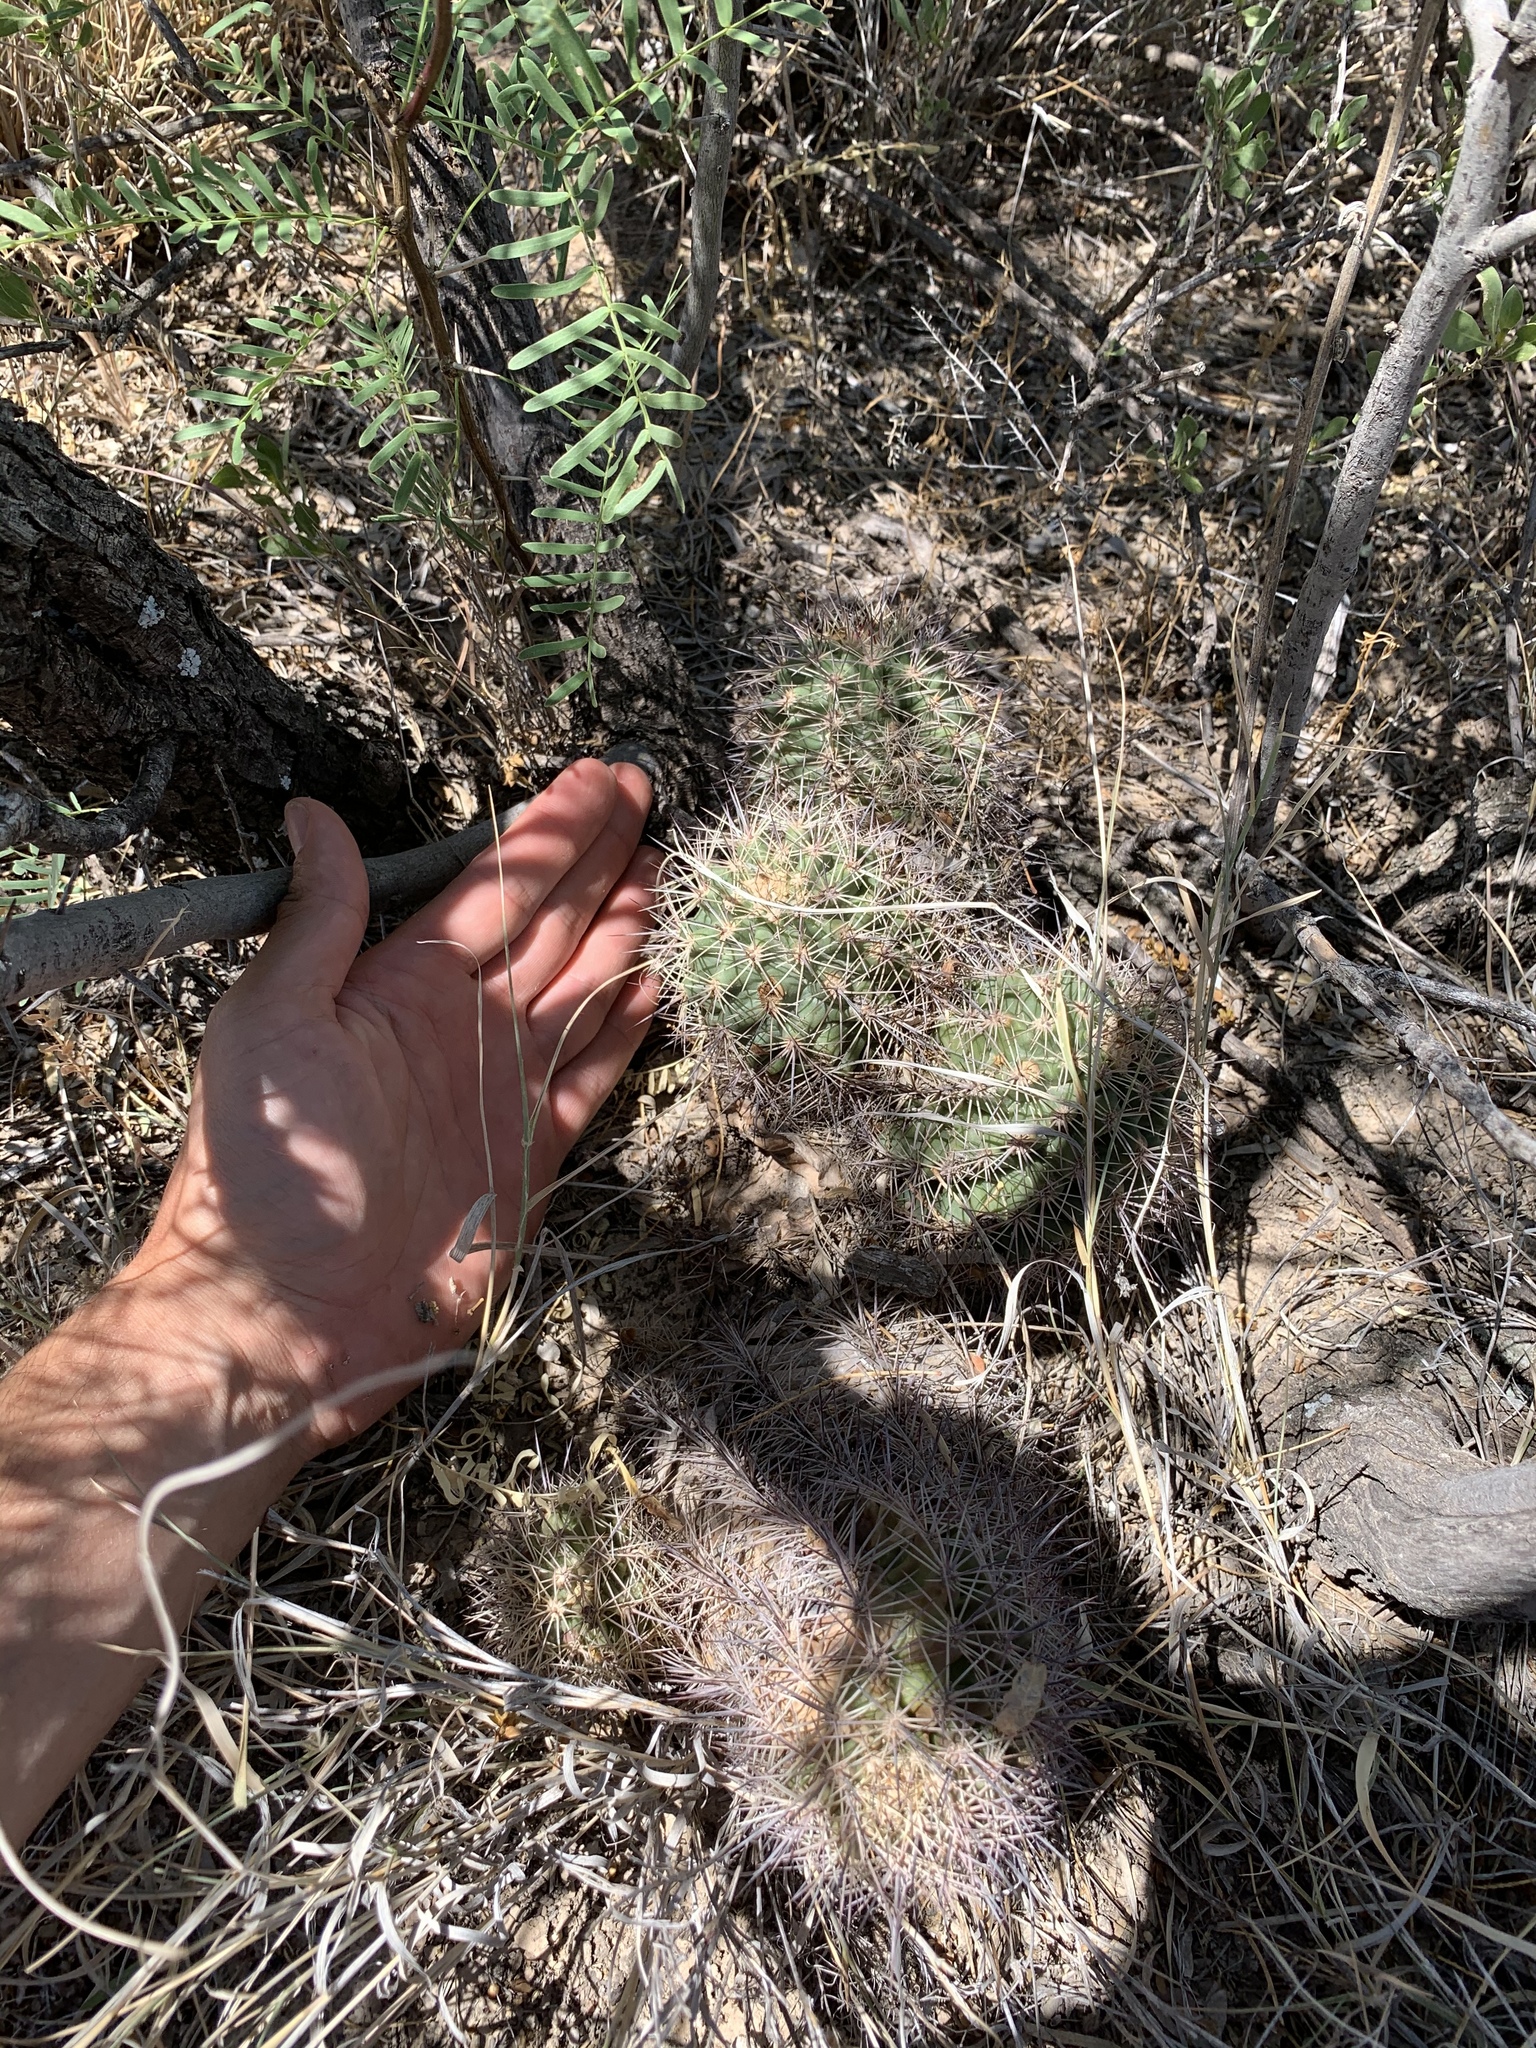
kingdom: Plantae
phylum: Tracheophyta
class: Magnoliopsida
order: Caryophyllales
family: Cactaceae
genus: Echinocereus
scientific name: Echinocereus roetteri
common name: Lloyd's hedgehog cactus
